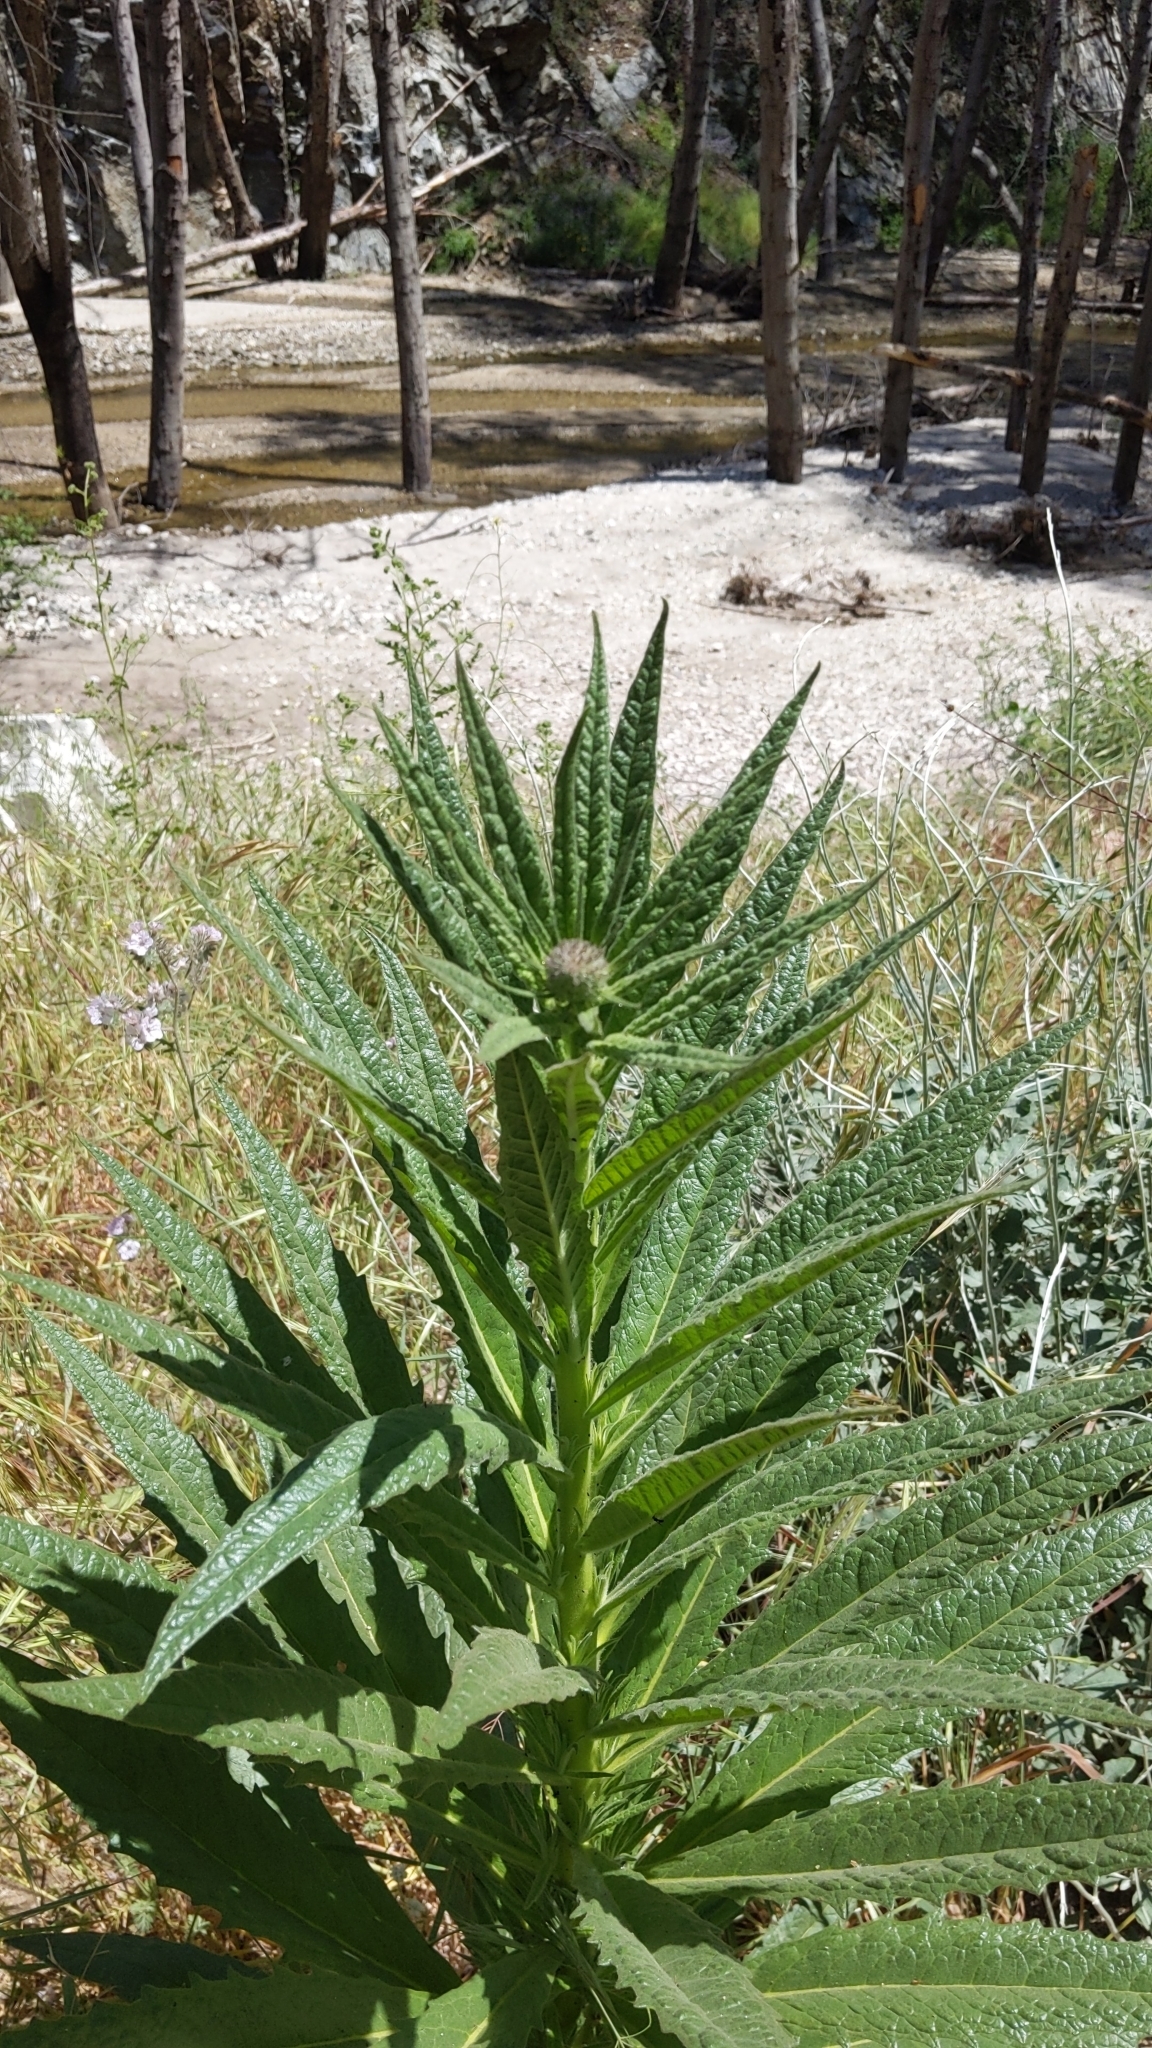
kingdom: Plantae
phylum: Tracheophyta
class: Magnoliopsida
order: Boraginales
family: Namaceae
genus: Turricula
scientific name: Turricula parryi
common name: Poodle-dog-bush
